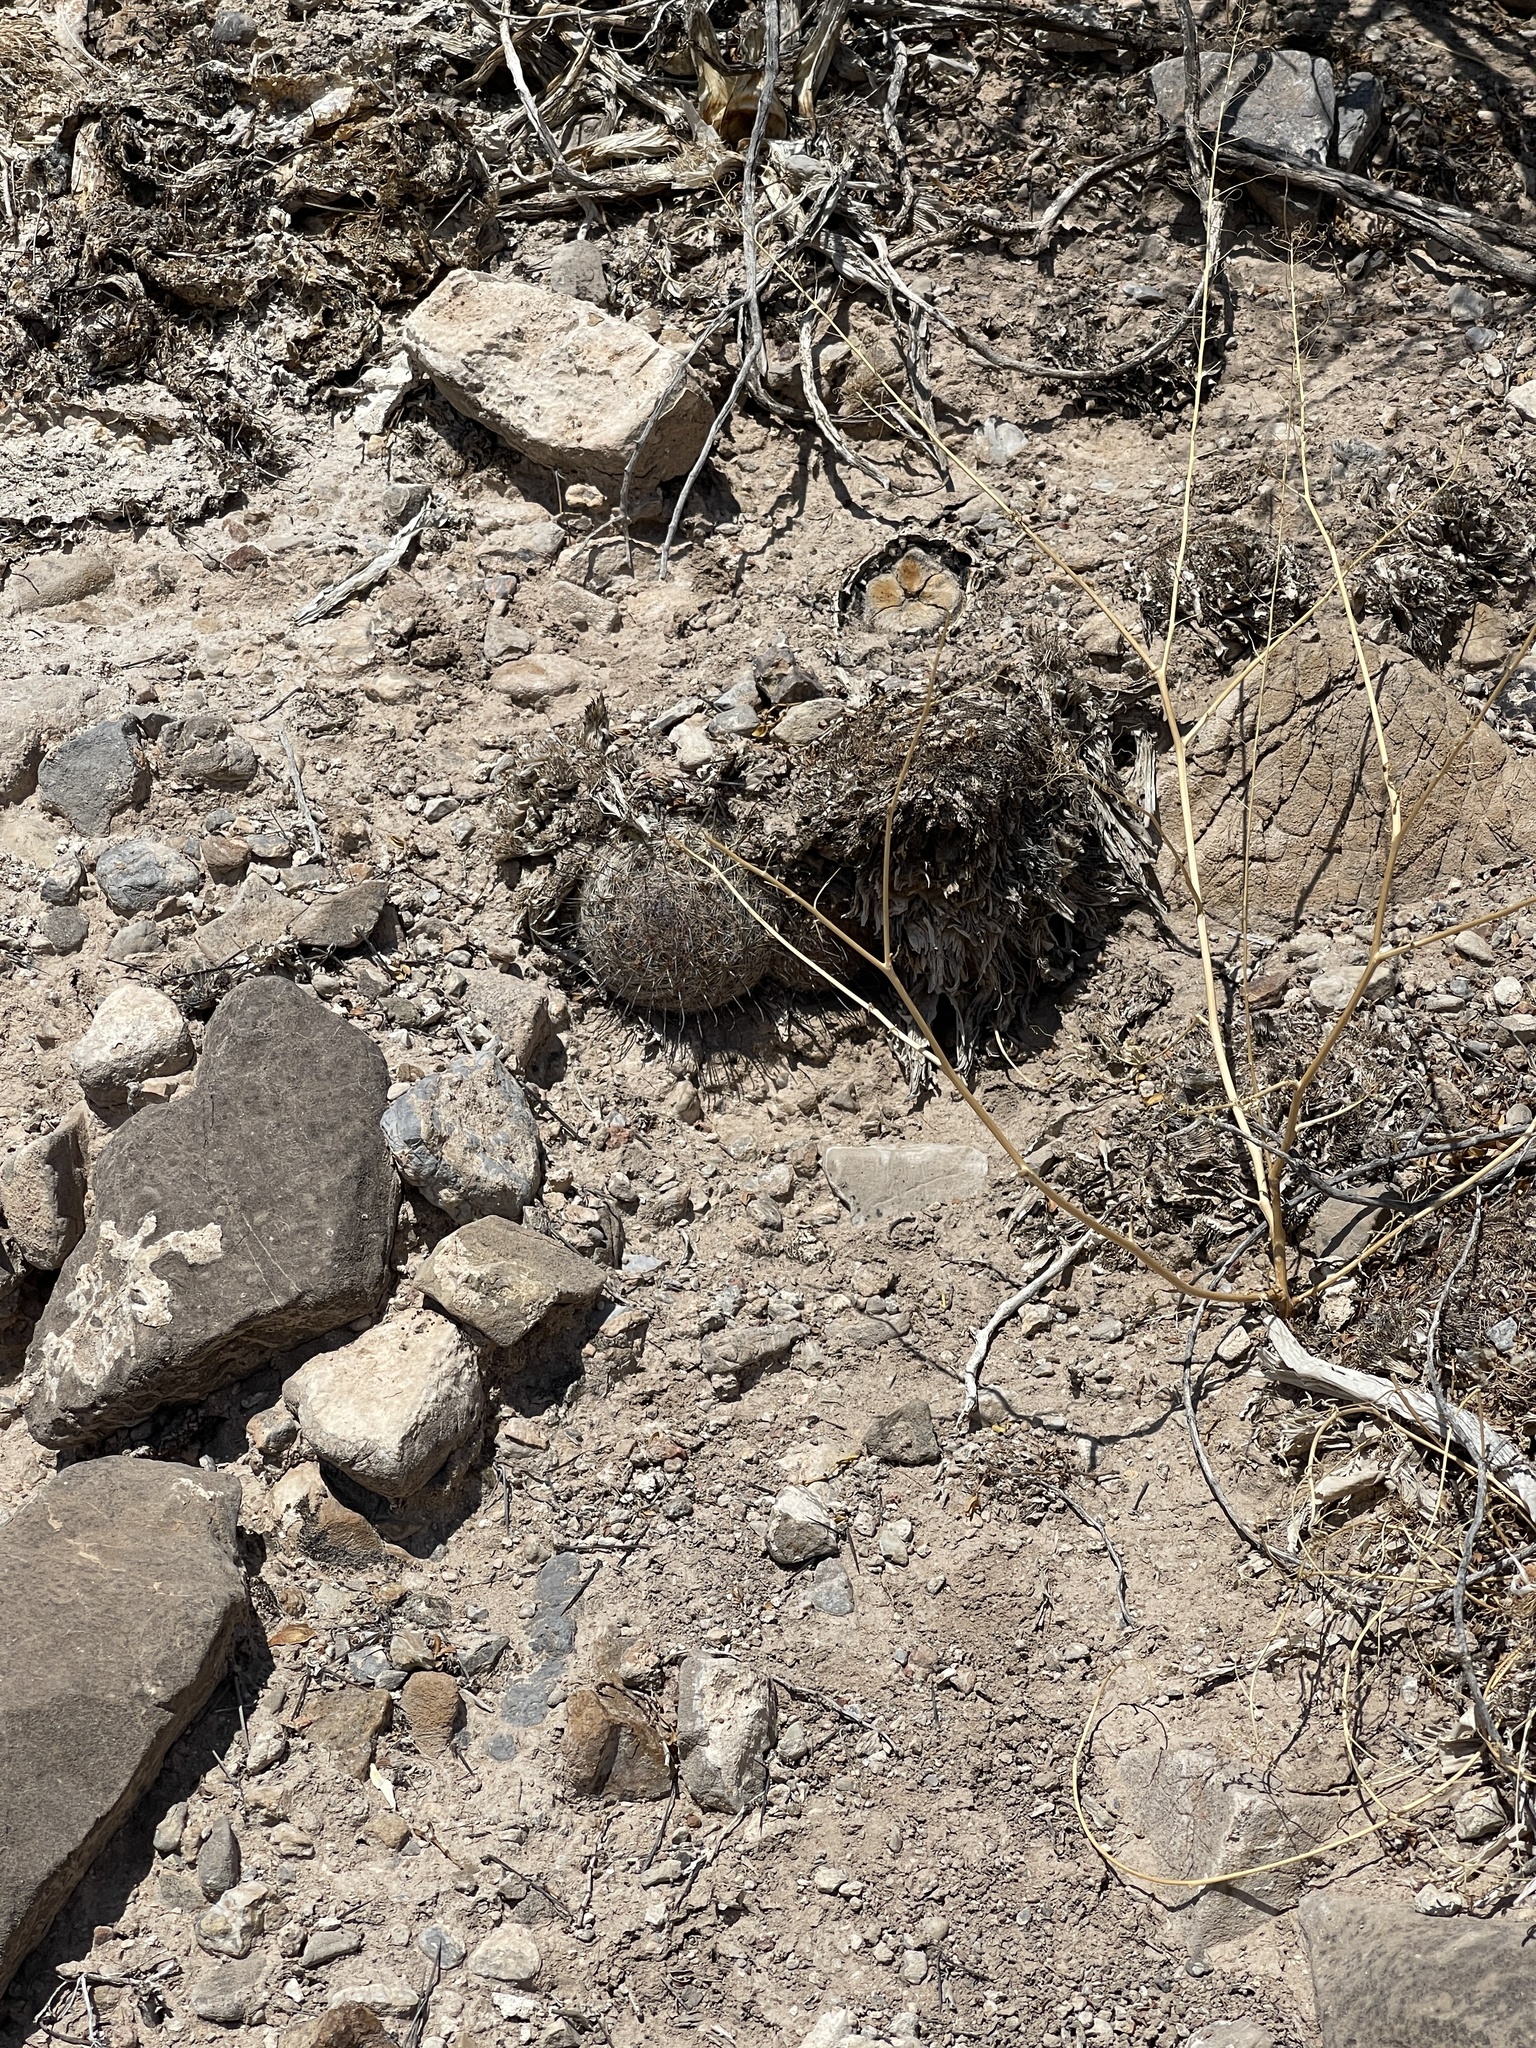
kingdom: Plantae
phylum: Tracheophyta
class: Magnoliopsida
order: Caryophyllales
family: Cactaceae
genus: Cochemiea
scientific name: Cochemiea grahamii
